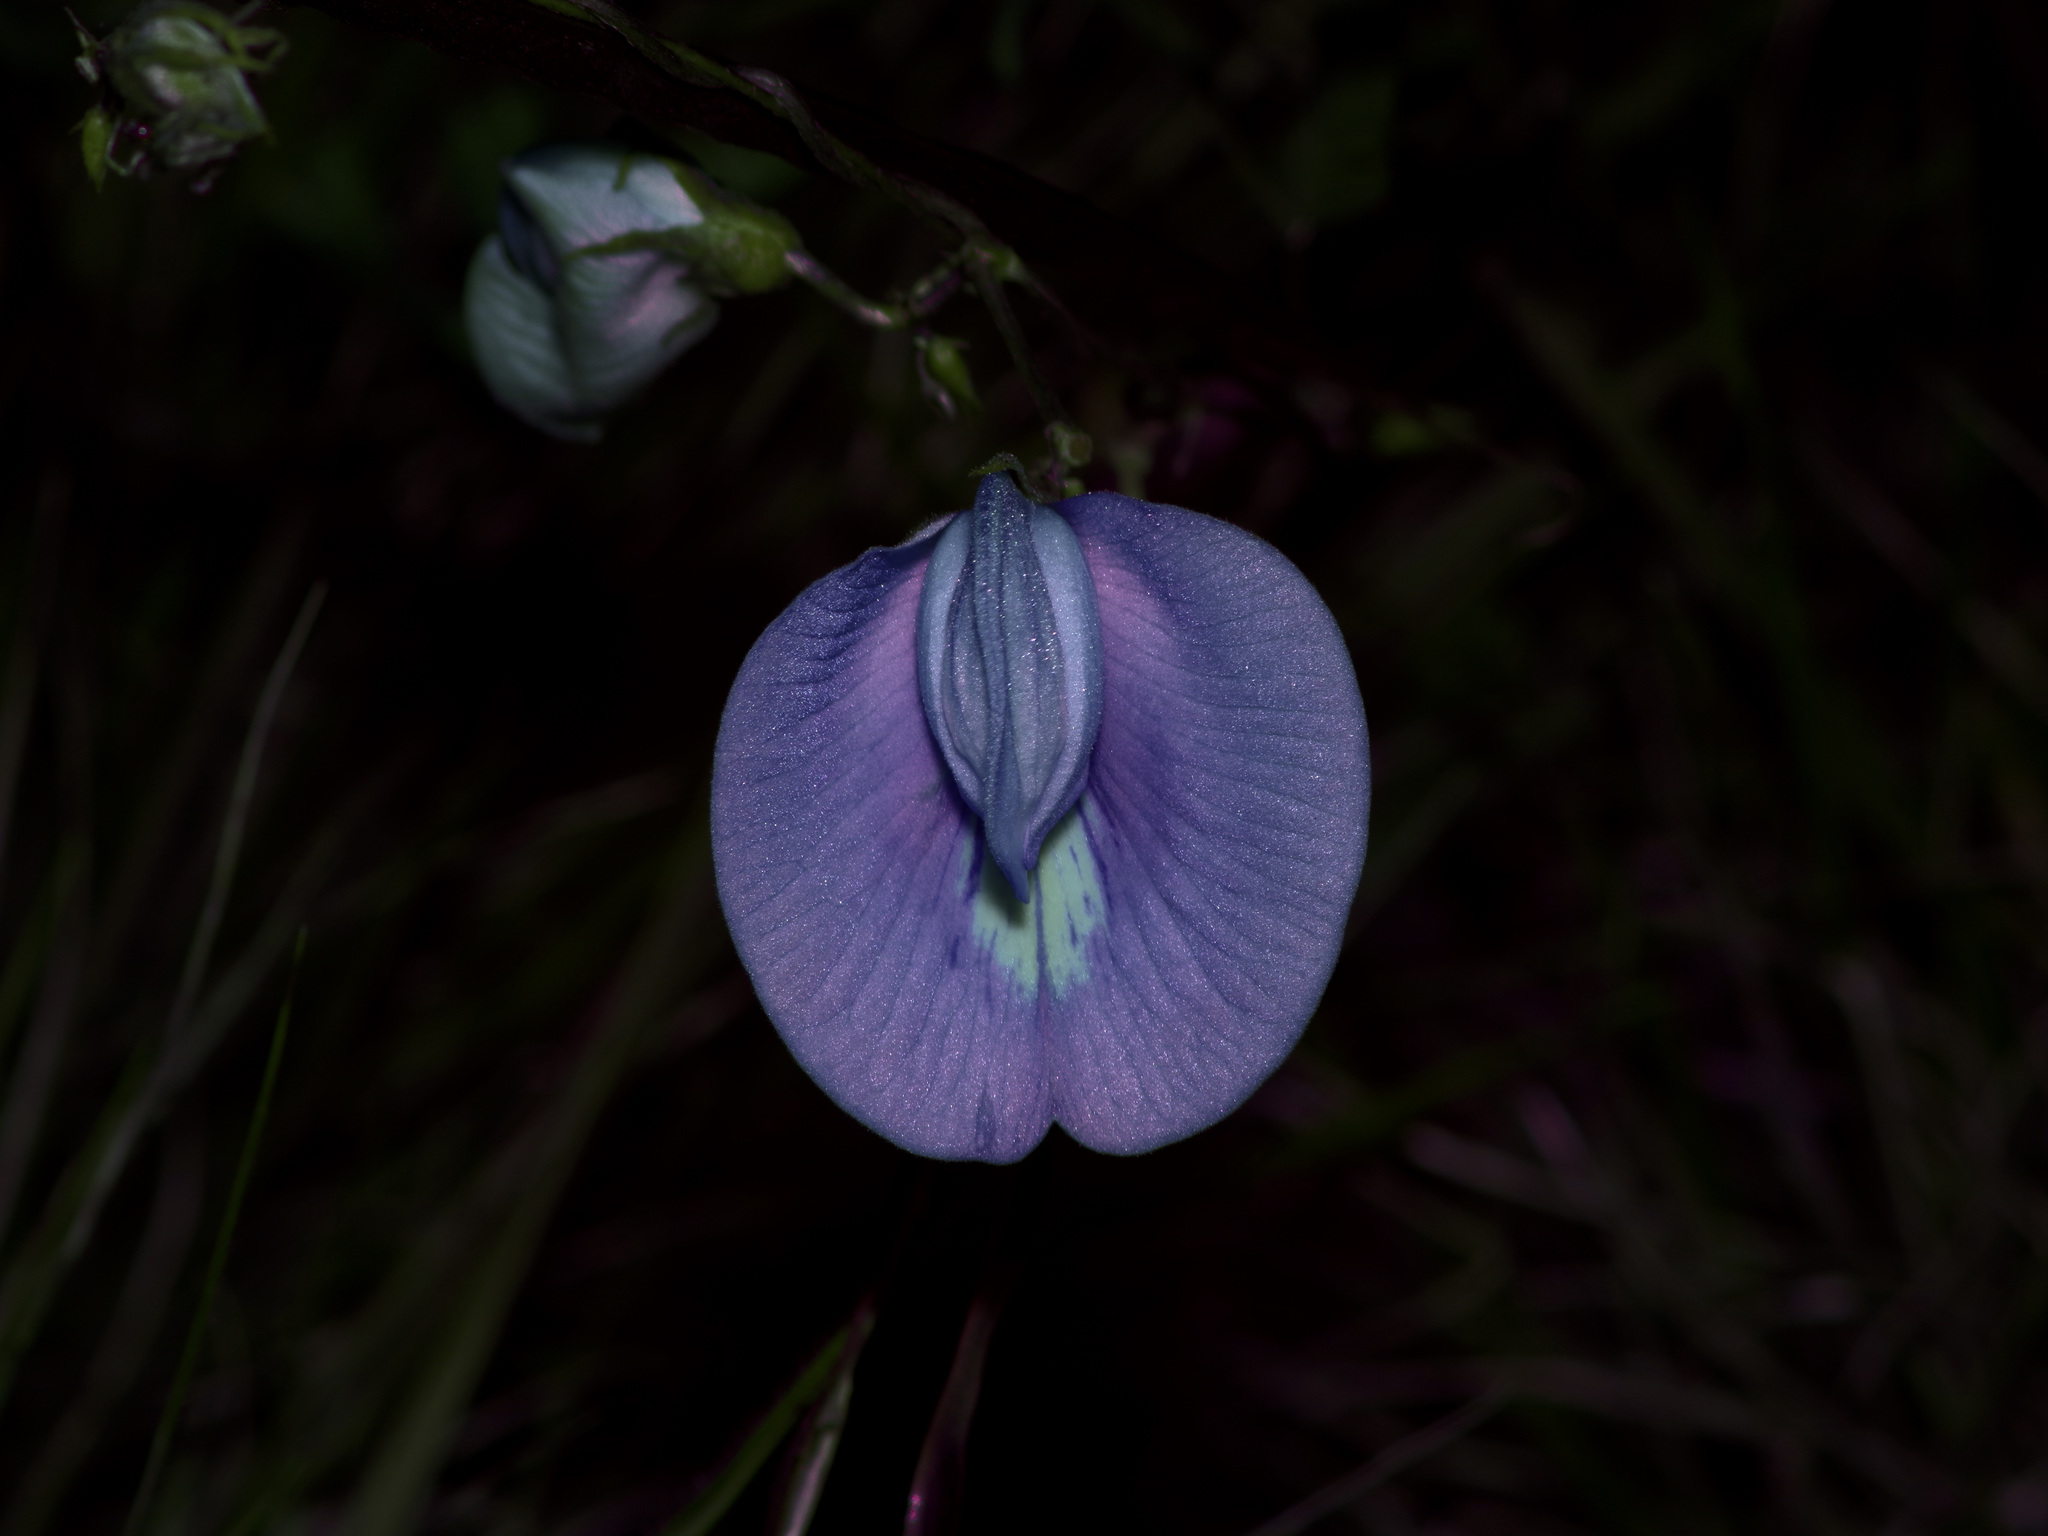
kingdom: Plantae
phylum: Tracheophyta
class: Magnoliopsida
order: Fabales
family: Fabaceae
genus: Centrosema
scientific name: Centrosema virginianum
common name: Butterfly-pea
